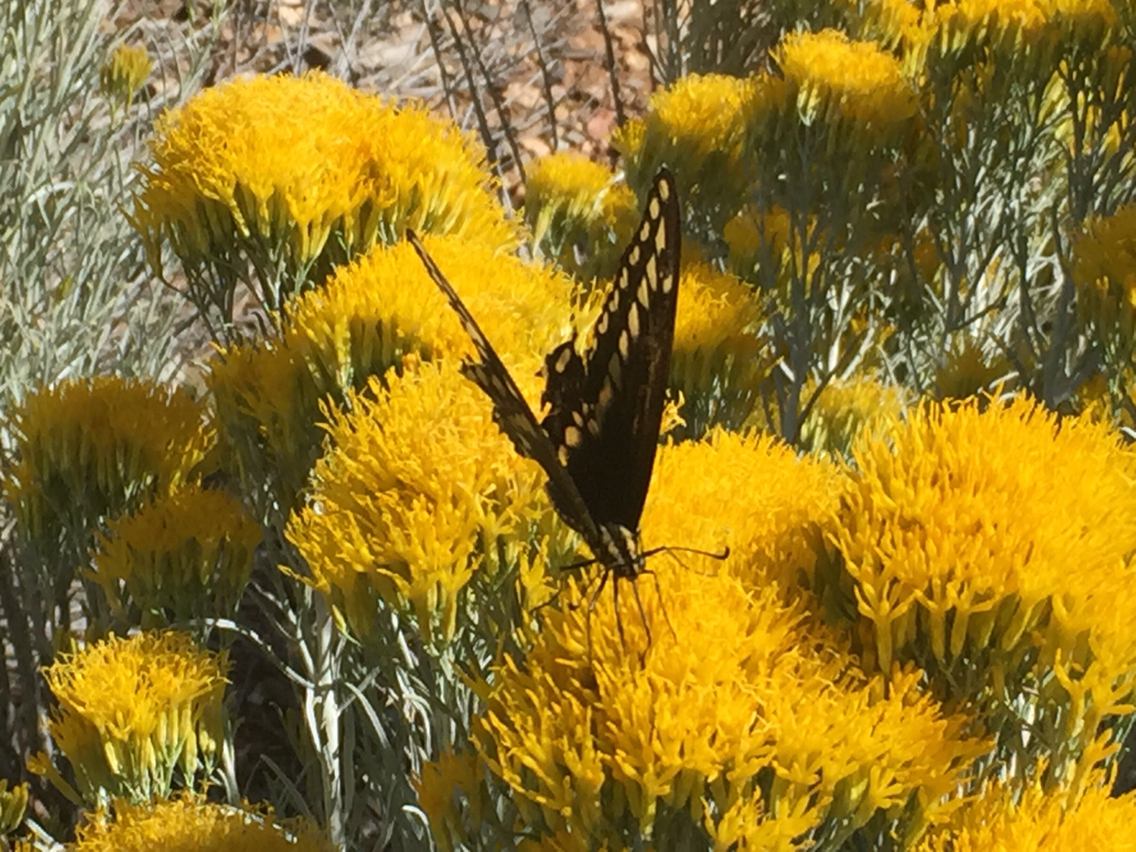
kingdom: Animalia
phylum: Arthropoda
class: Insecta
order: Lepidoptera
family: Papilionidae
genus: Papilio
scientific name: Papilio
